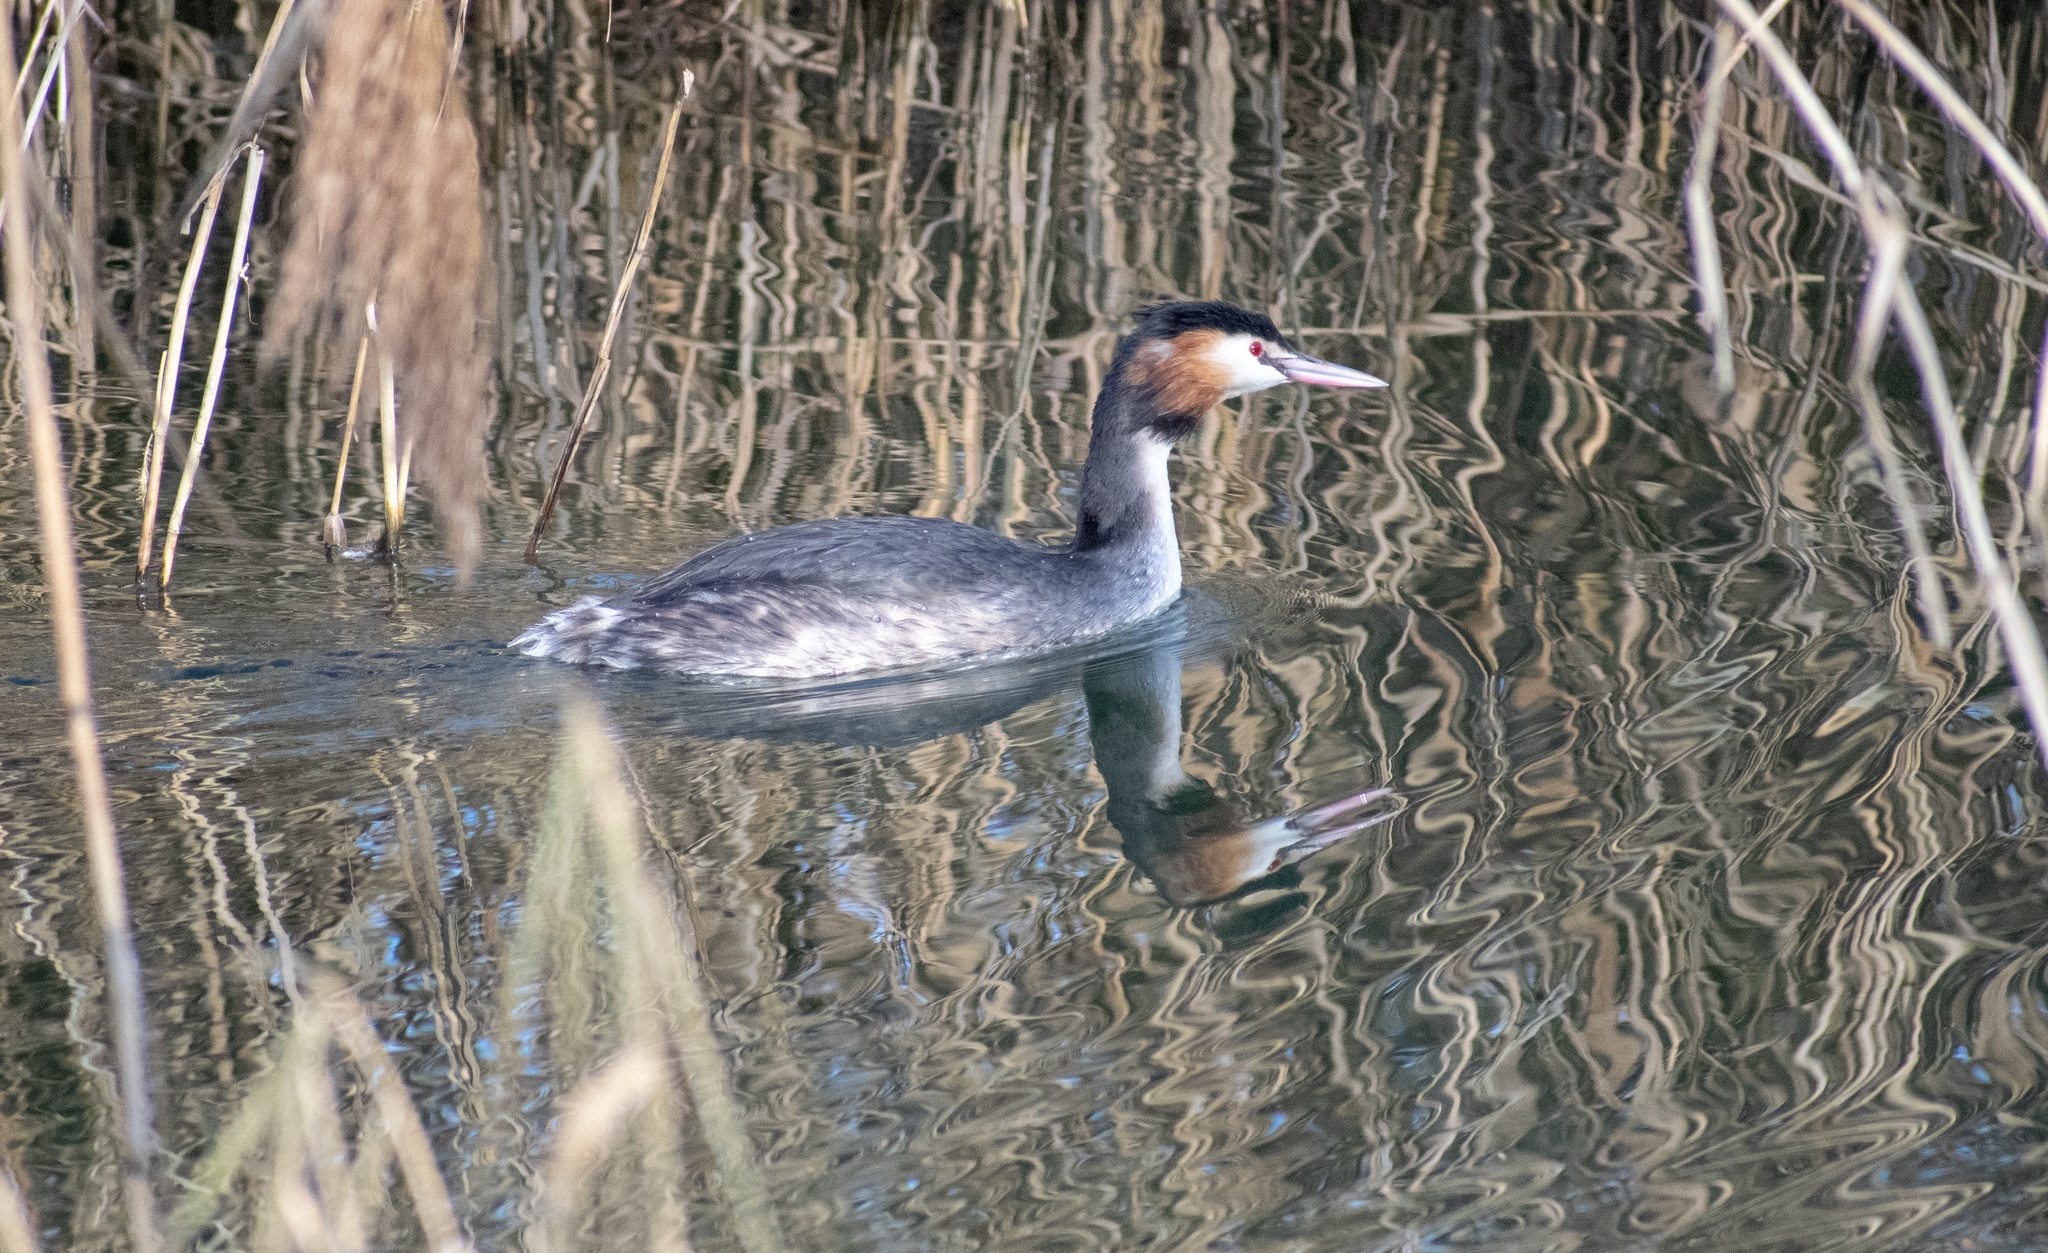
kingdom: Animalia
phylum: Chordata
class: Aves
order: Podicipediformes
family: Podicipedidae
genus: Podiceps
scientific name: Podiceps cristatus
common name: Great crested grebe
